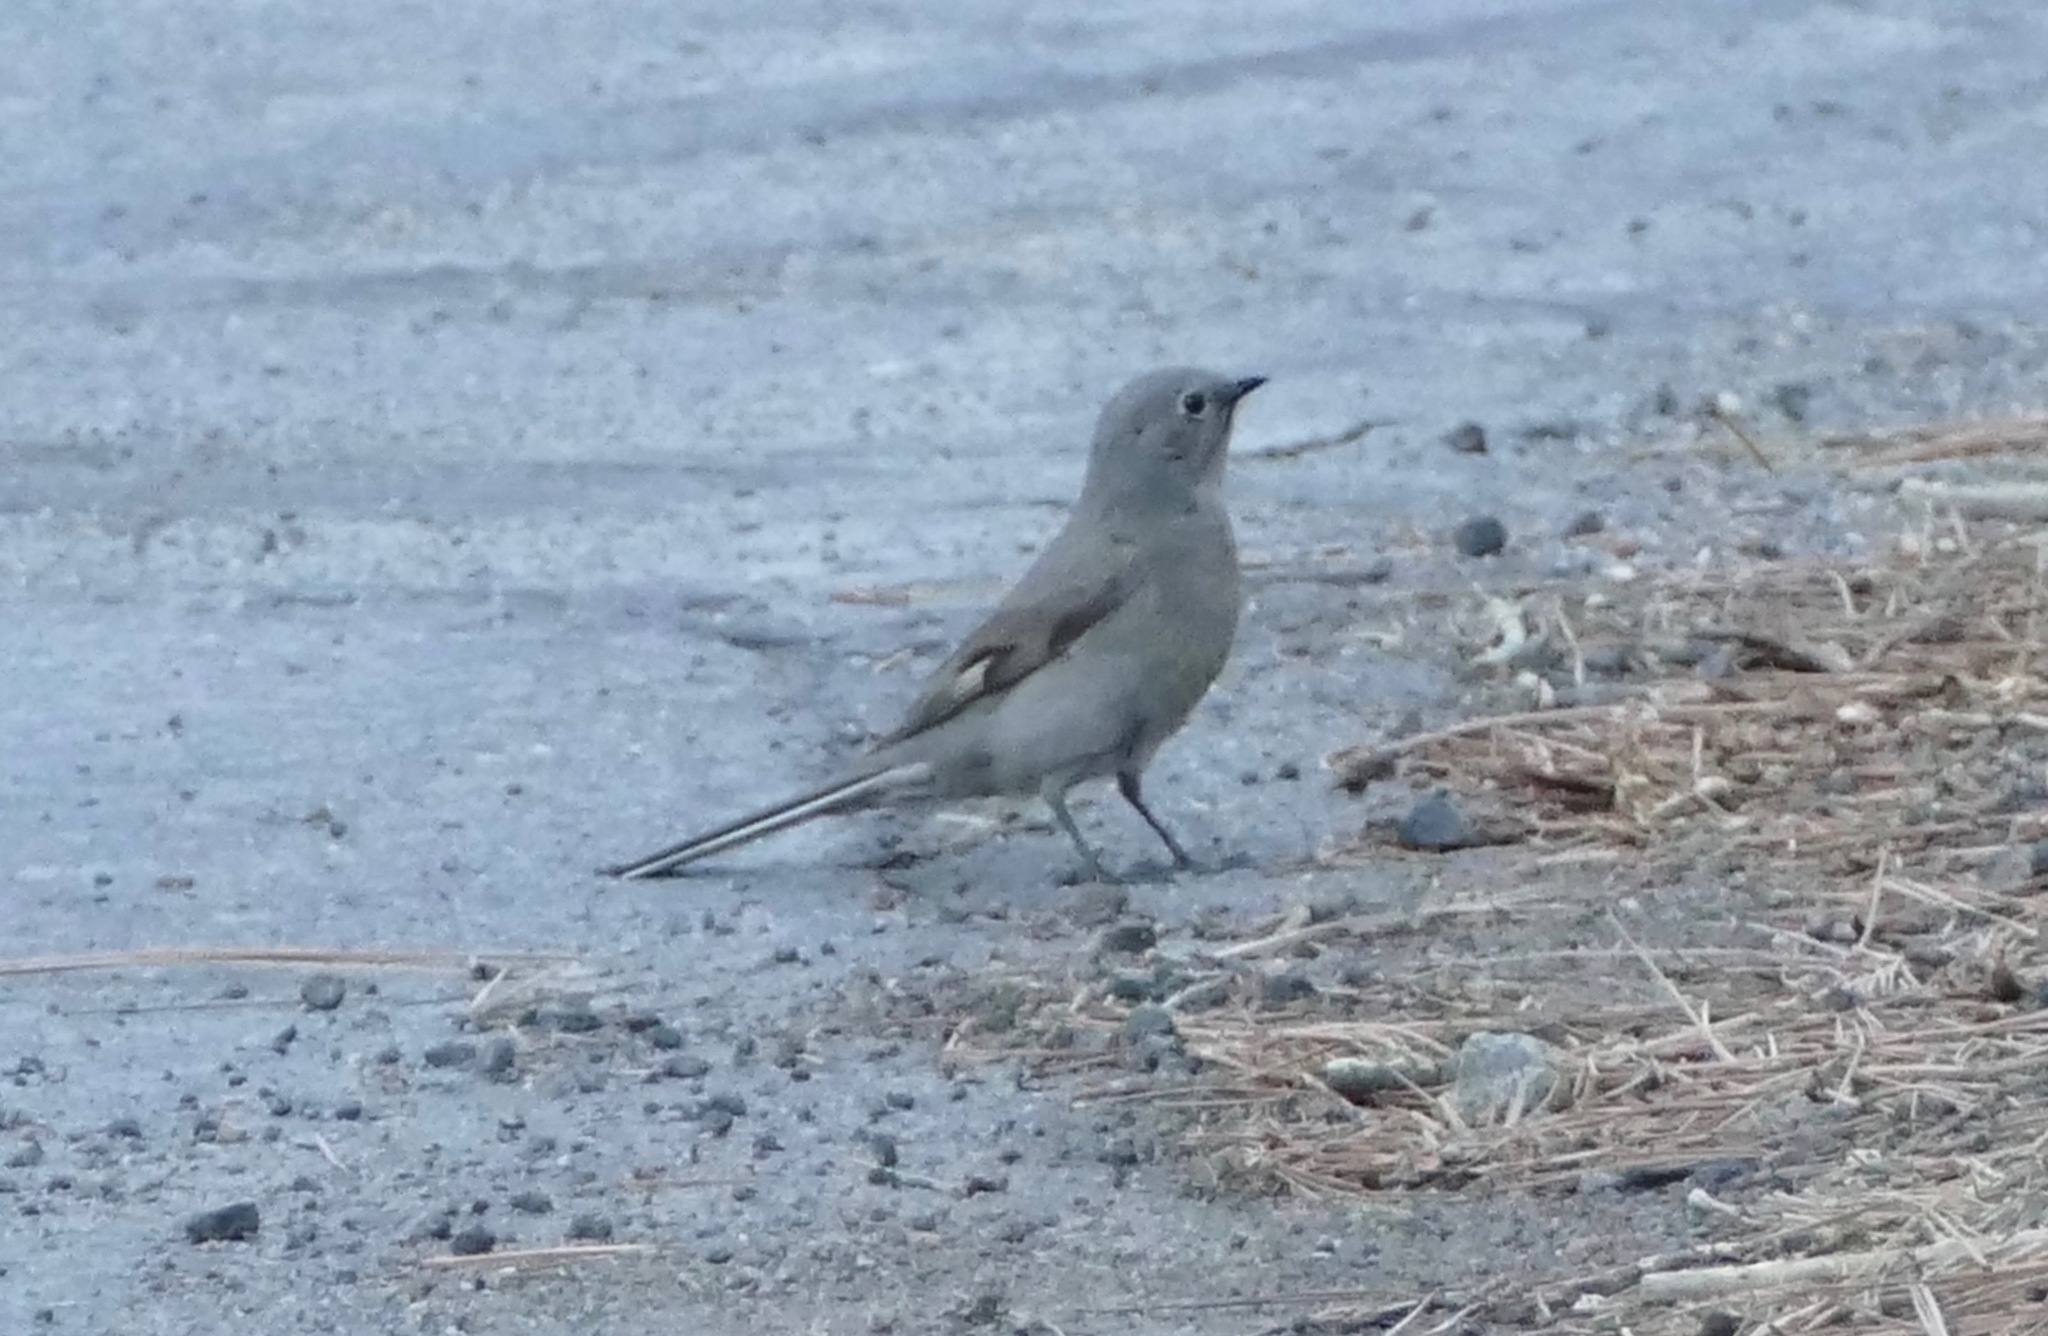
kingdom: Animalia
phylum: Chordata
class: Aves
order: Passeriformes
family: Turdidae
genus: Myadestes
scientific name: Myadestes townsendi
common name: Townsend's solitaire
